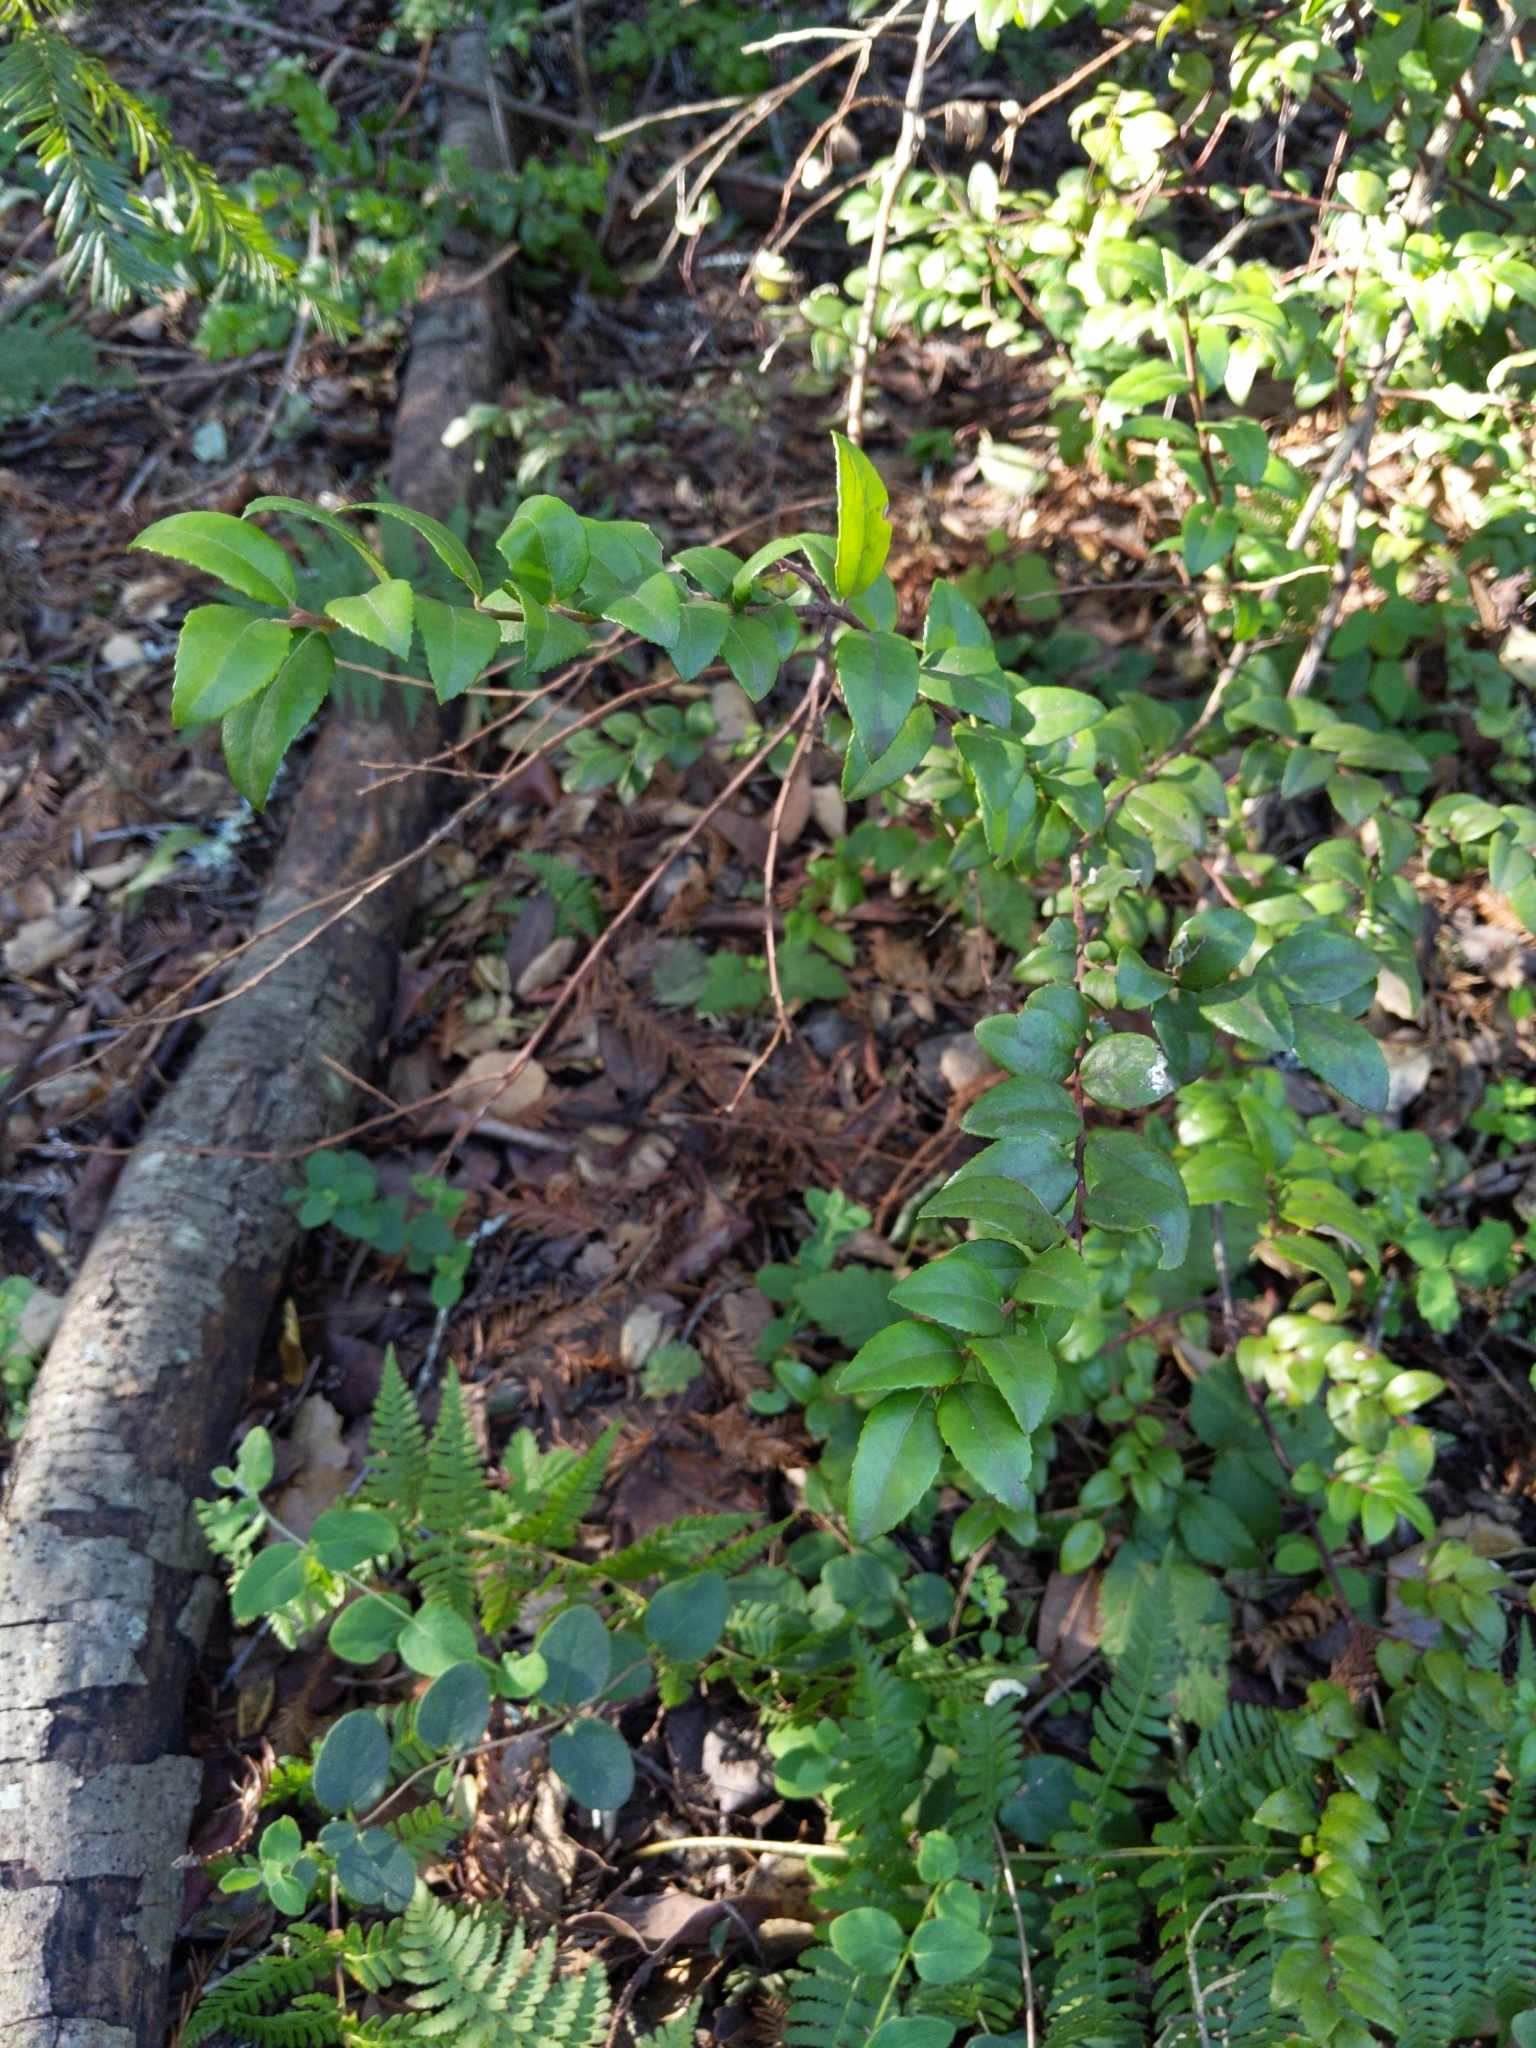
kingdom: Plantae
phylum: Tracheophyta
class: Magnoliopsida
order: Ericales
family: Ericaceae
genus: Vaccinium
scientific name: Vaccinium ovatum
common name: California-huckleberry
